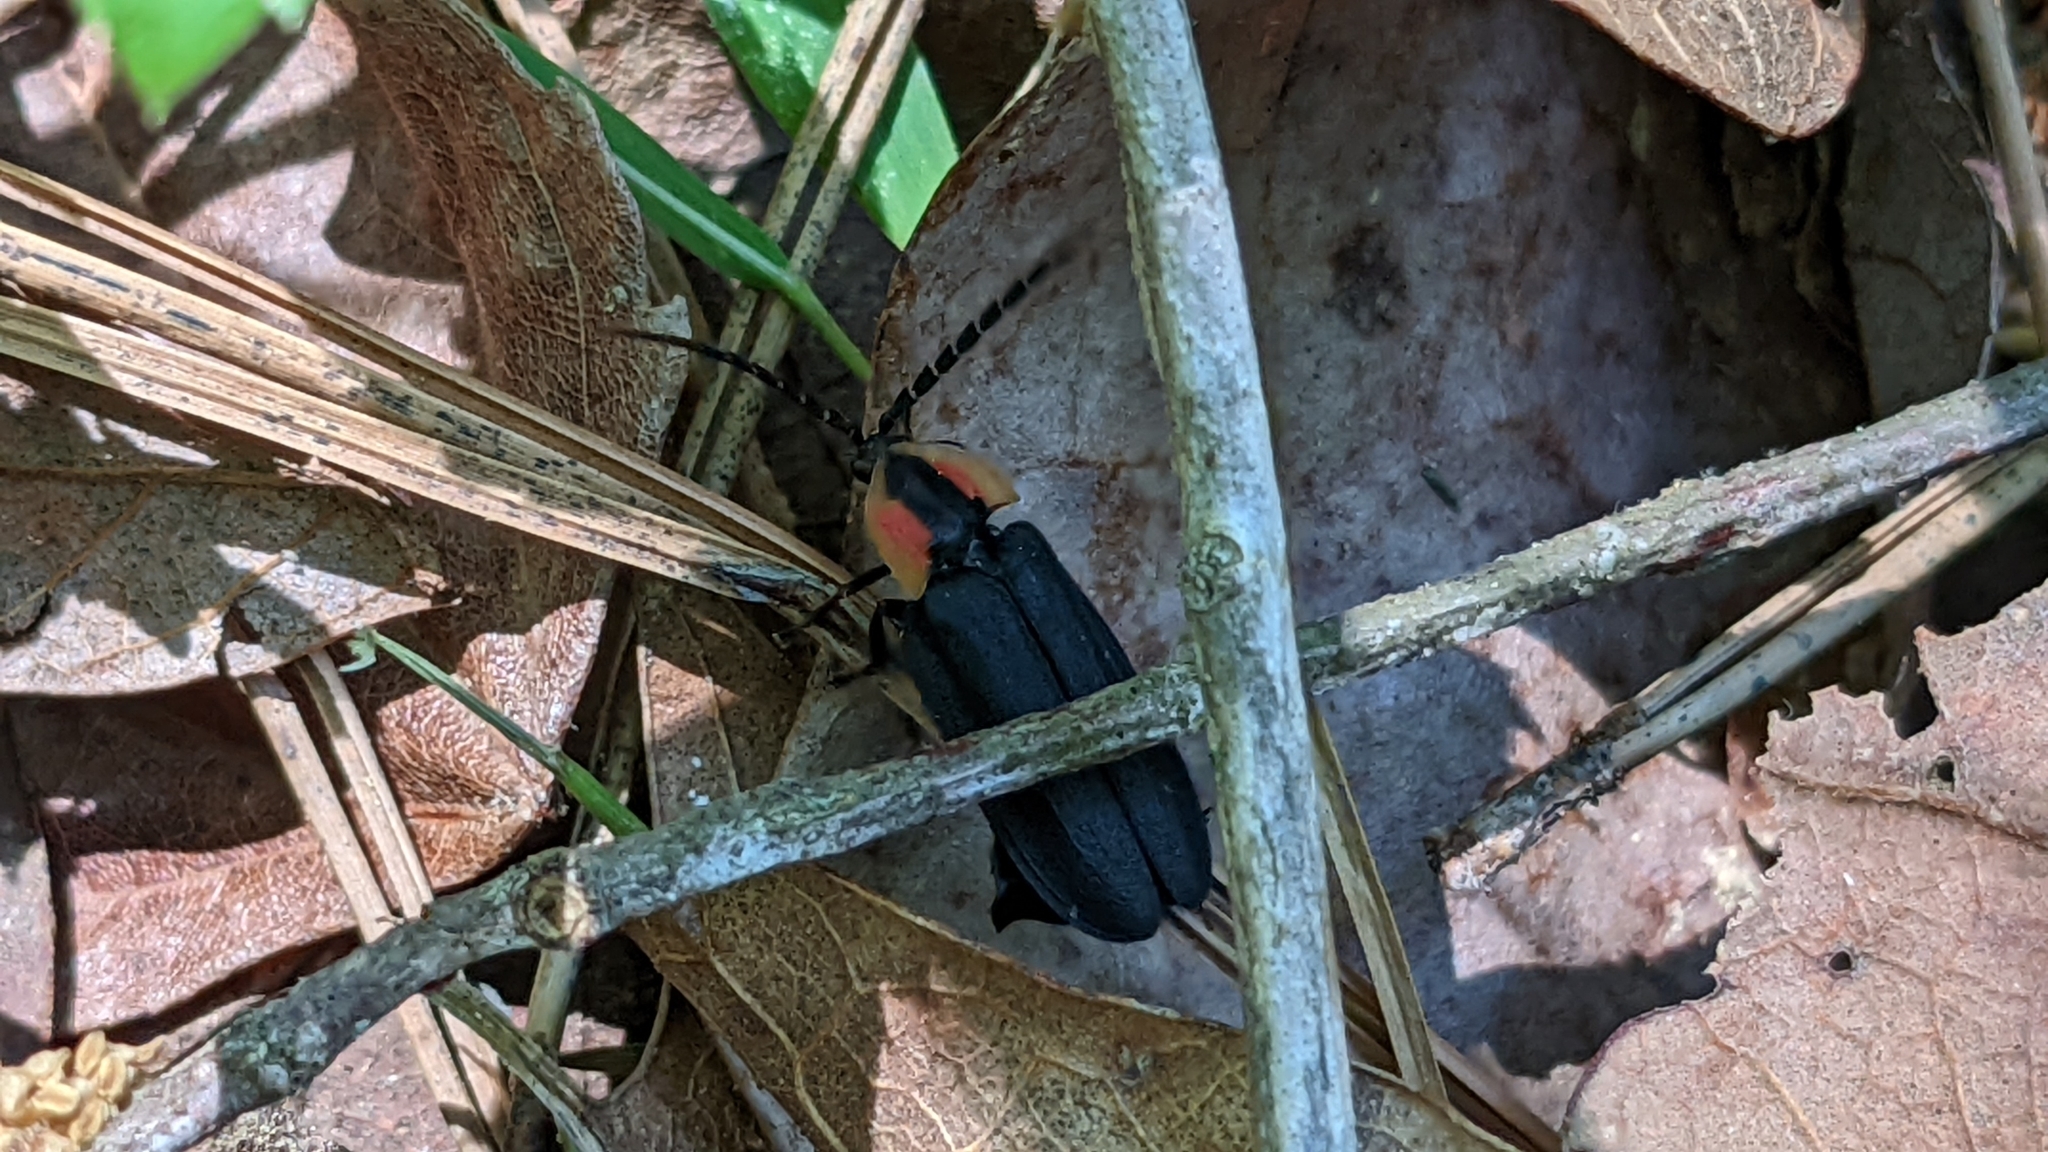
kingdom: Animalia
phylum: Arthropoda
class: Insecta
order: Coleoptera
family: Lampyridae
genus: Lucidota
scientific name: Lucidota atra
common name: Black firefly
